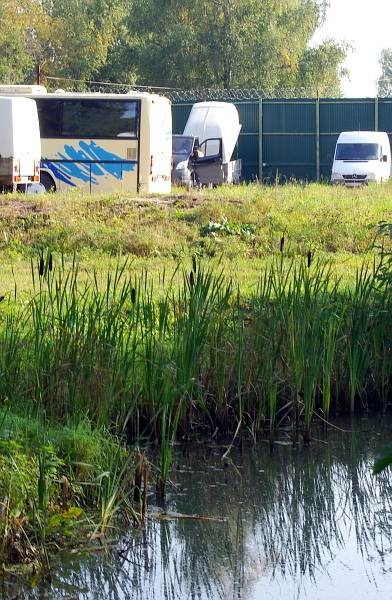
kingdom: Plantae
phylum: Tracheophyta
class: Liliopsida
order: Poales
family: Typhaceae
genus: Typha
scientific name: Typha latifolia
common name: Broadleaf cattail
